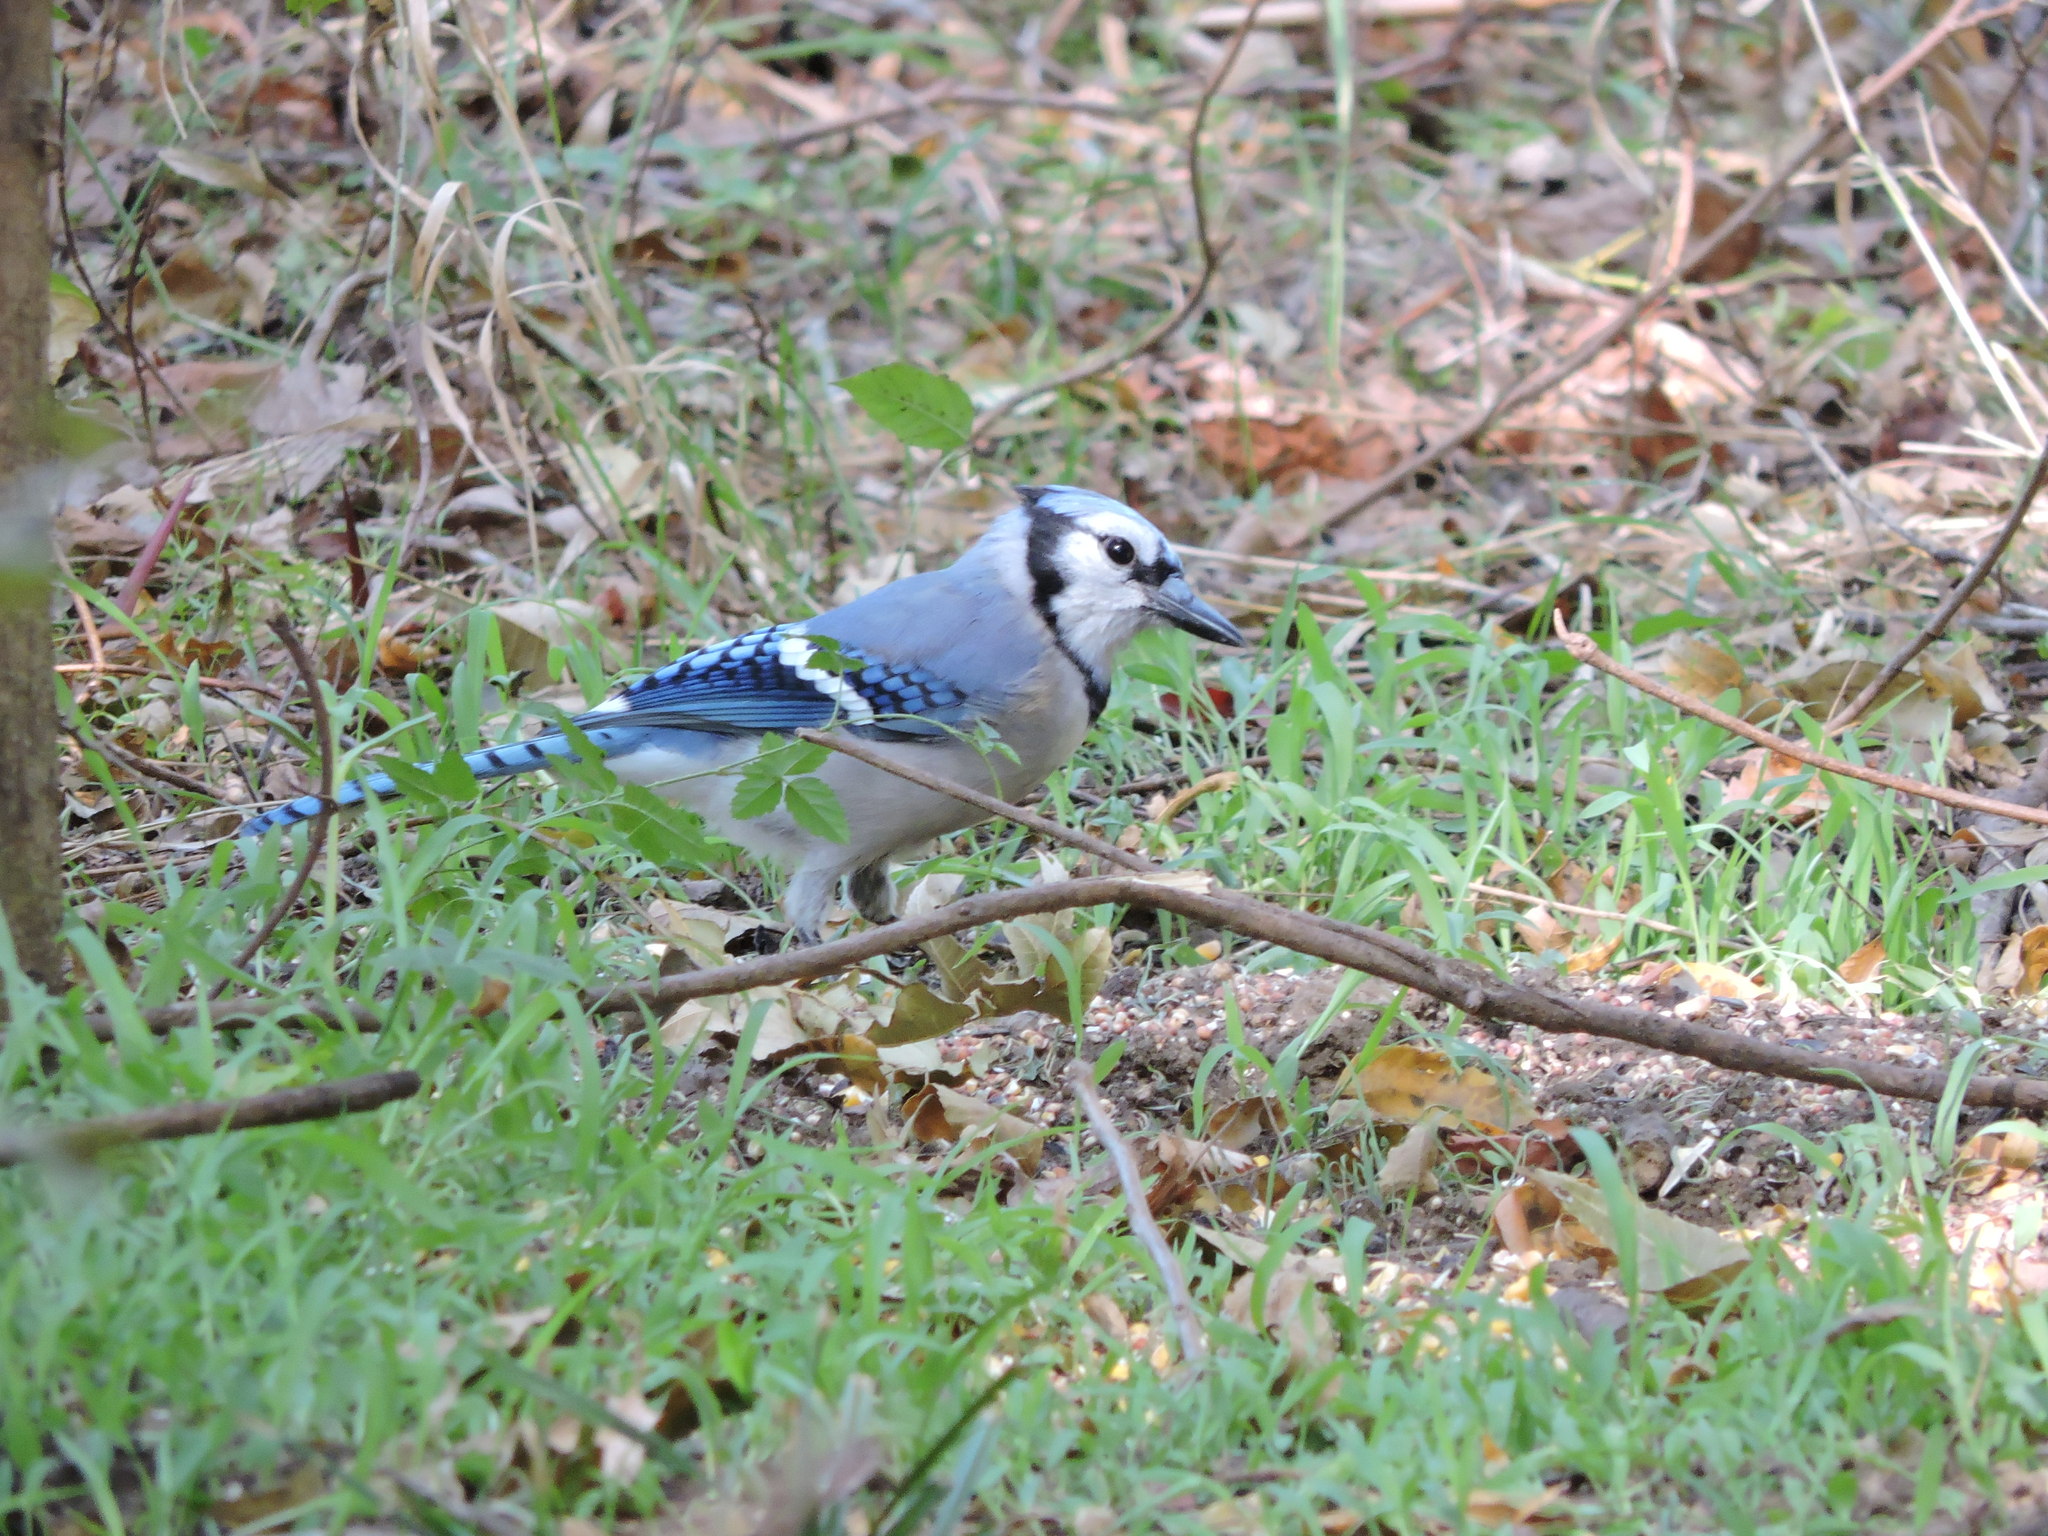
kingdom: Animalia
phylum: Chordata
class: Aves
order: Passeriformes
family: Corvidae
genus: Cyanocitta
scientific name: Cyanocitta cristata
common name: Blue jay
